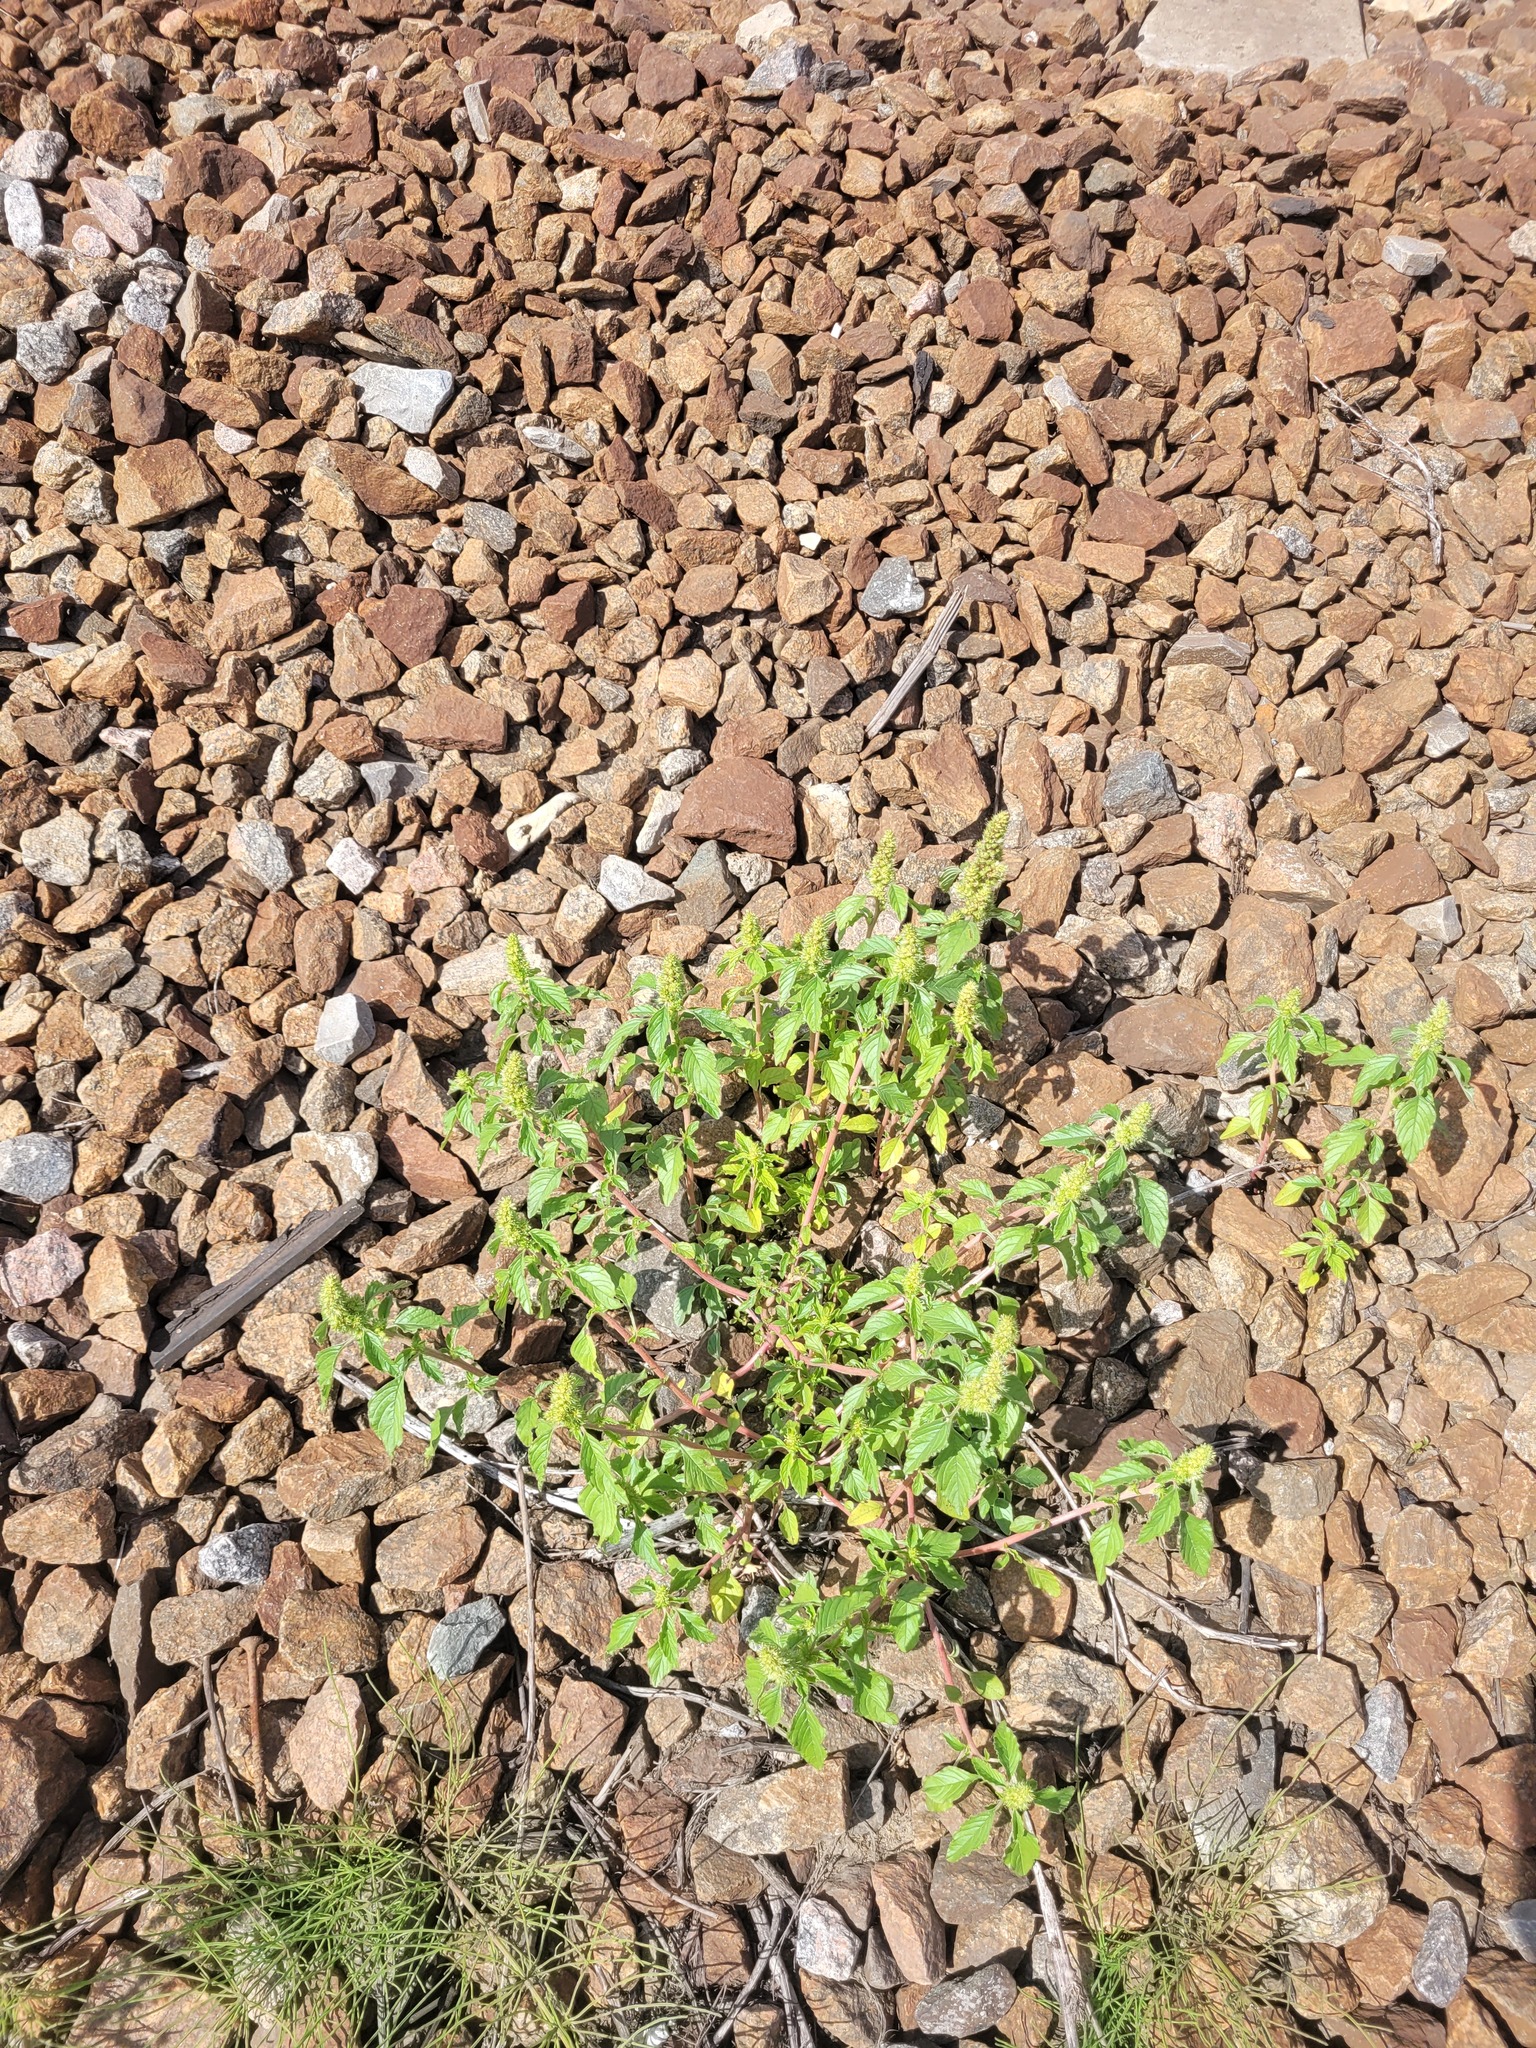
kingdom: Plantae
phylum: Tracheophyta
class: Magnoliopsida
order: Caryophyllales
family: Amaranthaceae
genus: Amaranthus
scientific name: Amaranthus retroflexus
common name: Redroot amaranth
